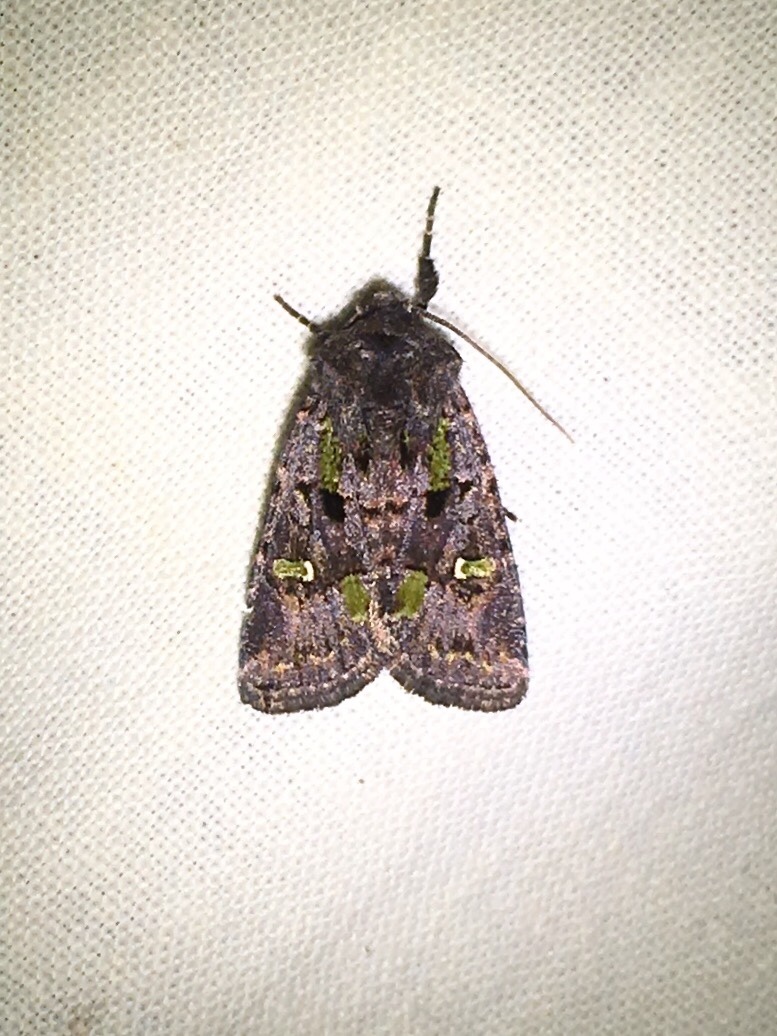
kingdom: Animalia
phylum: Arthropoda
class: Insecta
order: Lepidoptera
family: Noctuidae
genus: Lacinipolia
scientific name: Lacinipolia renigera
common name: Kidney-spotted minor
